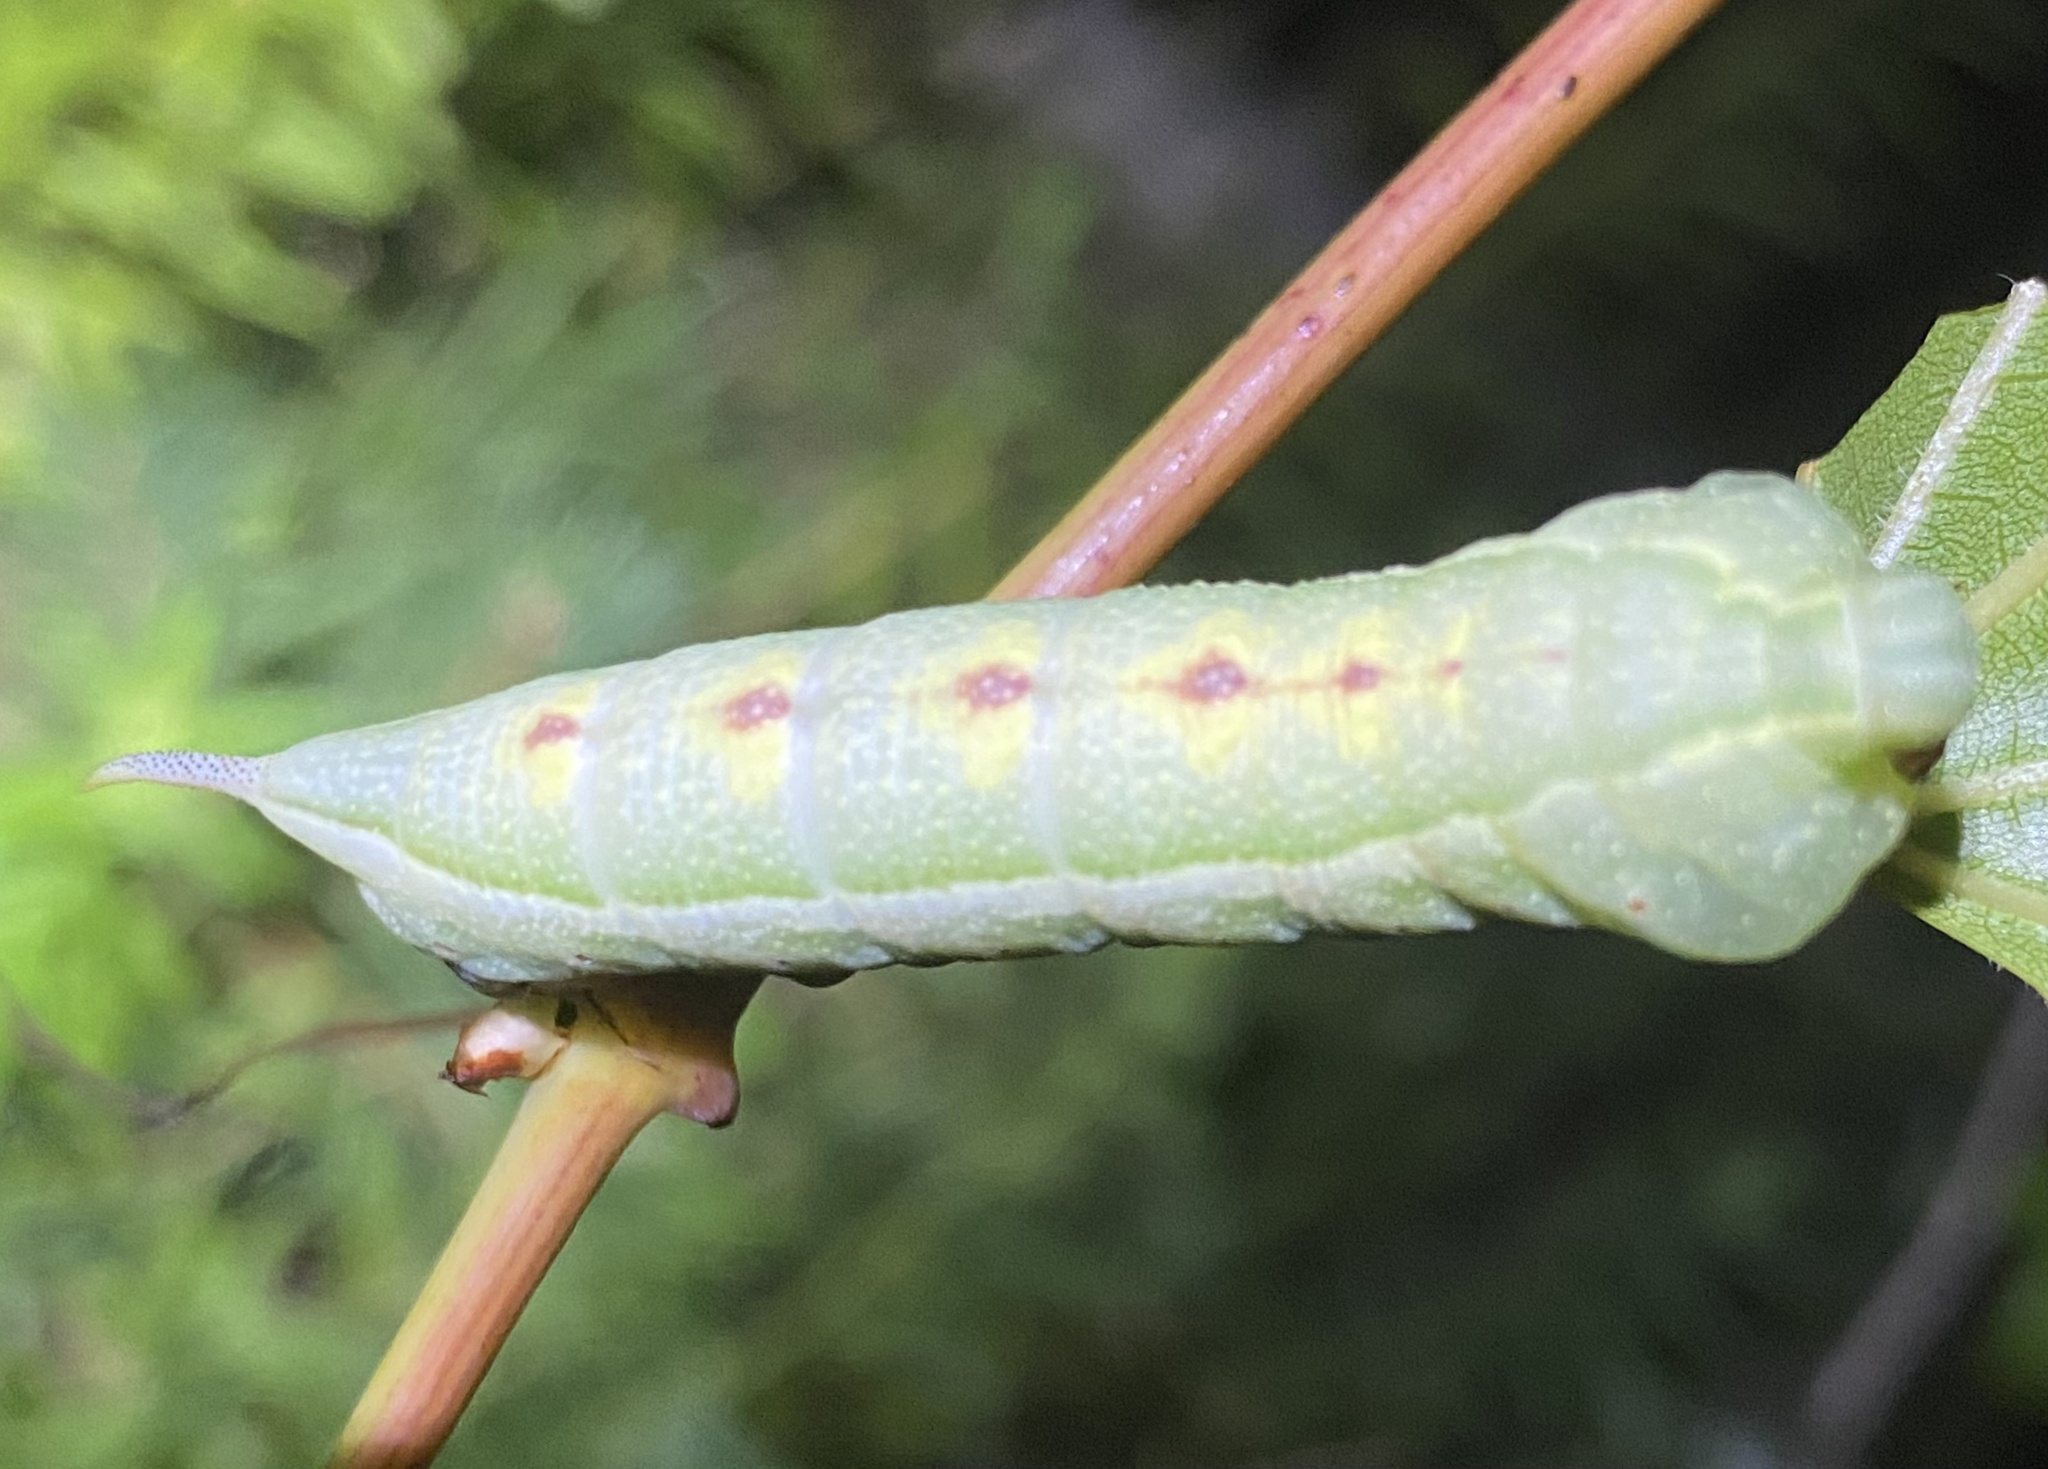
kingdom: Animalia
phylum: Arthropoda
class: Insecta
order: Lepidoptera
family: Sphingidae
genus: Darapsa
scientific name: Darapsa myron
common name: Hog sphinx
